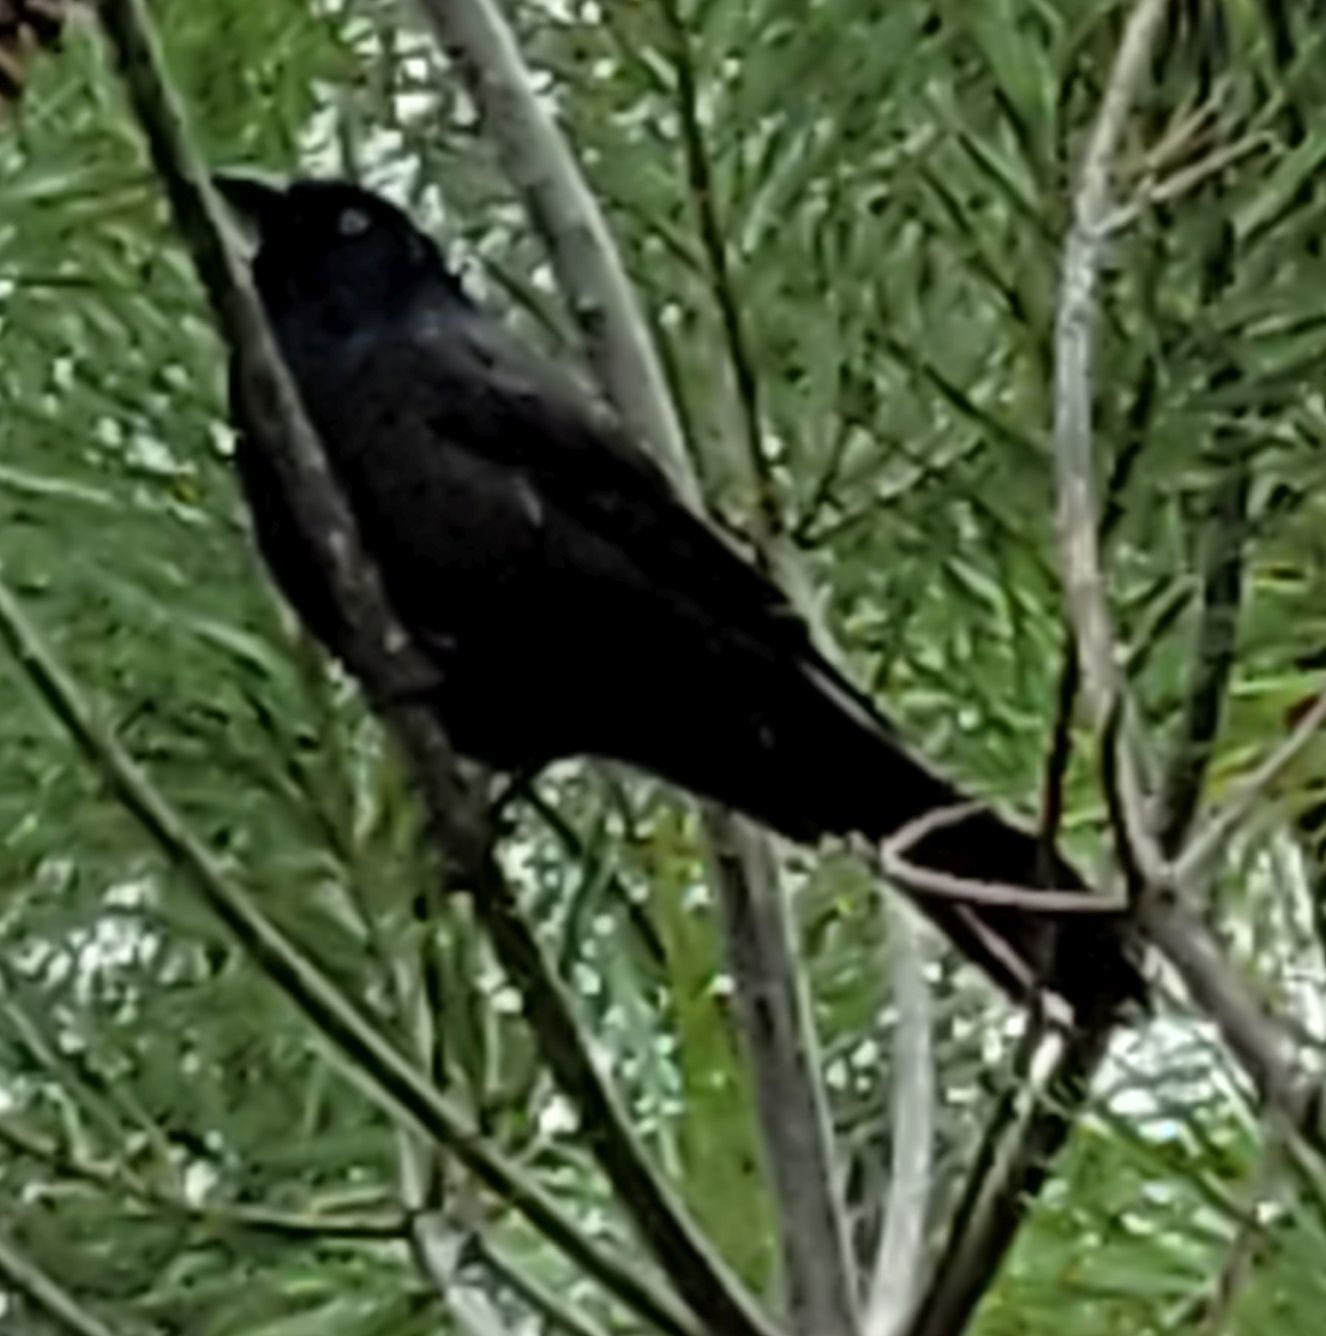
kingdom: Animalia
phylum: Chordata
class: Aves
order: Passeriformes
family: Icteridae
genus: Quiscalus
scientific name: Quiscalus quiscula
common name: Common grackle
